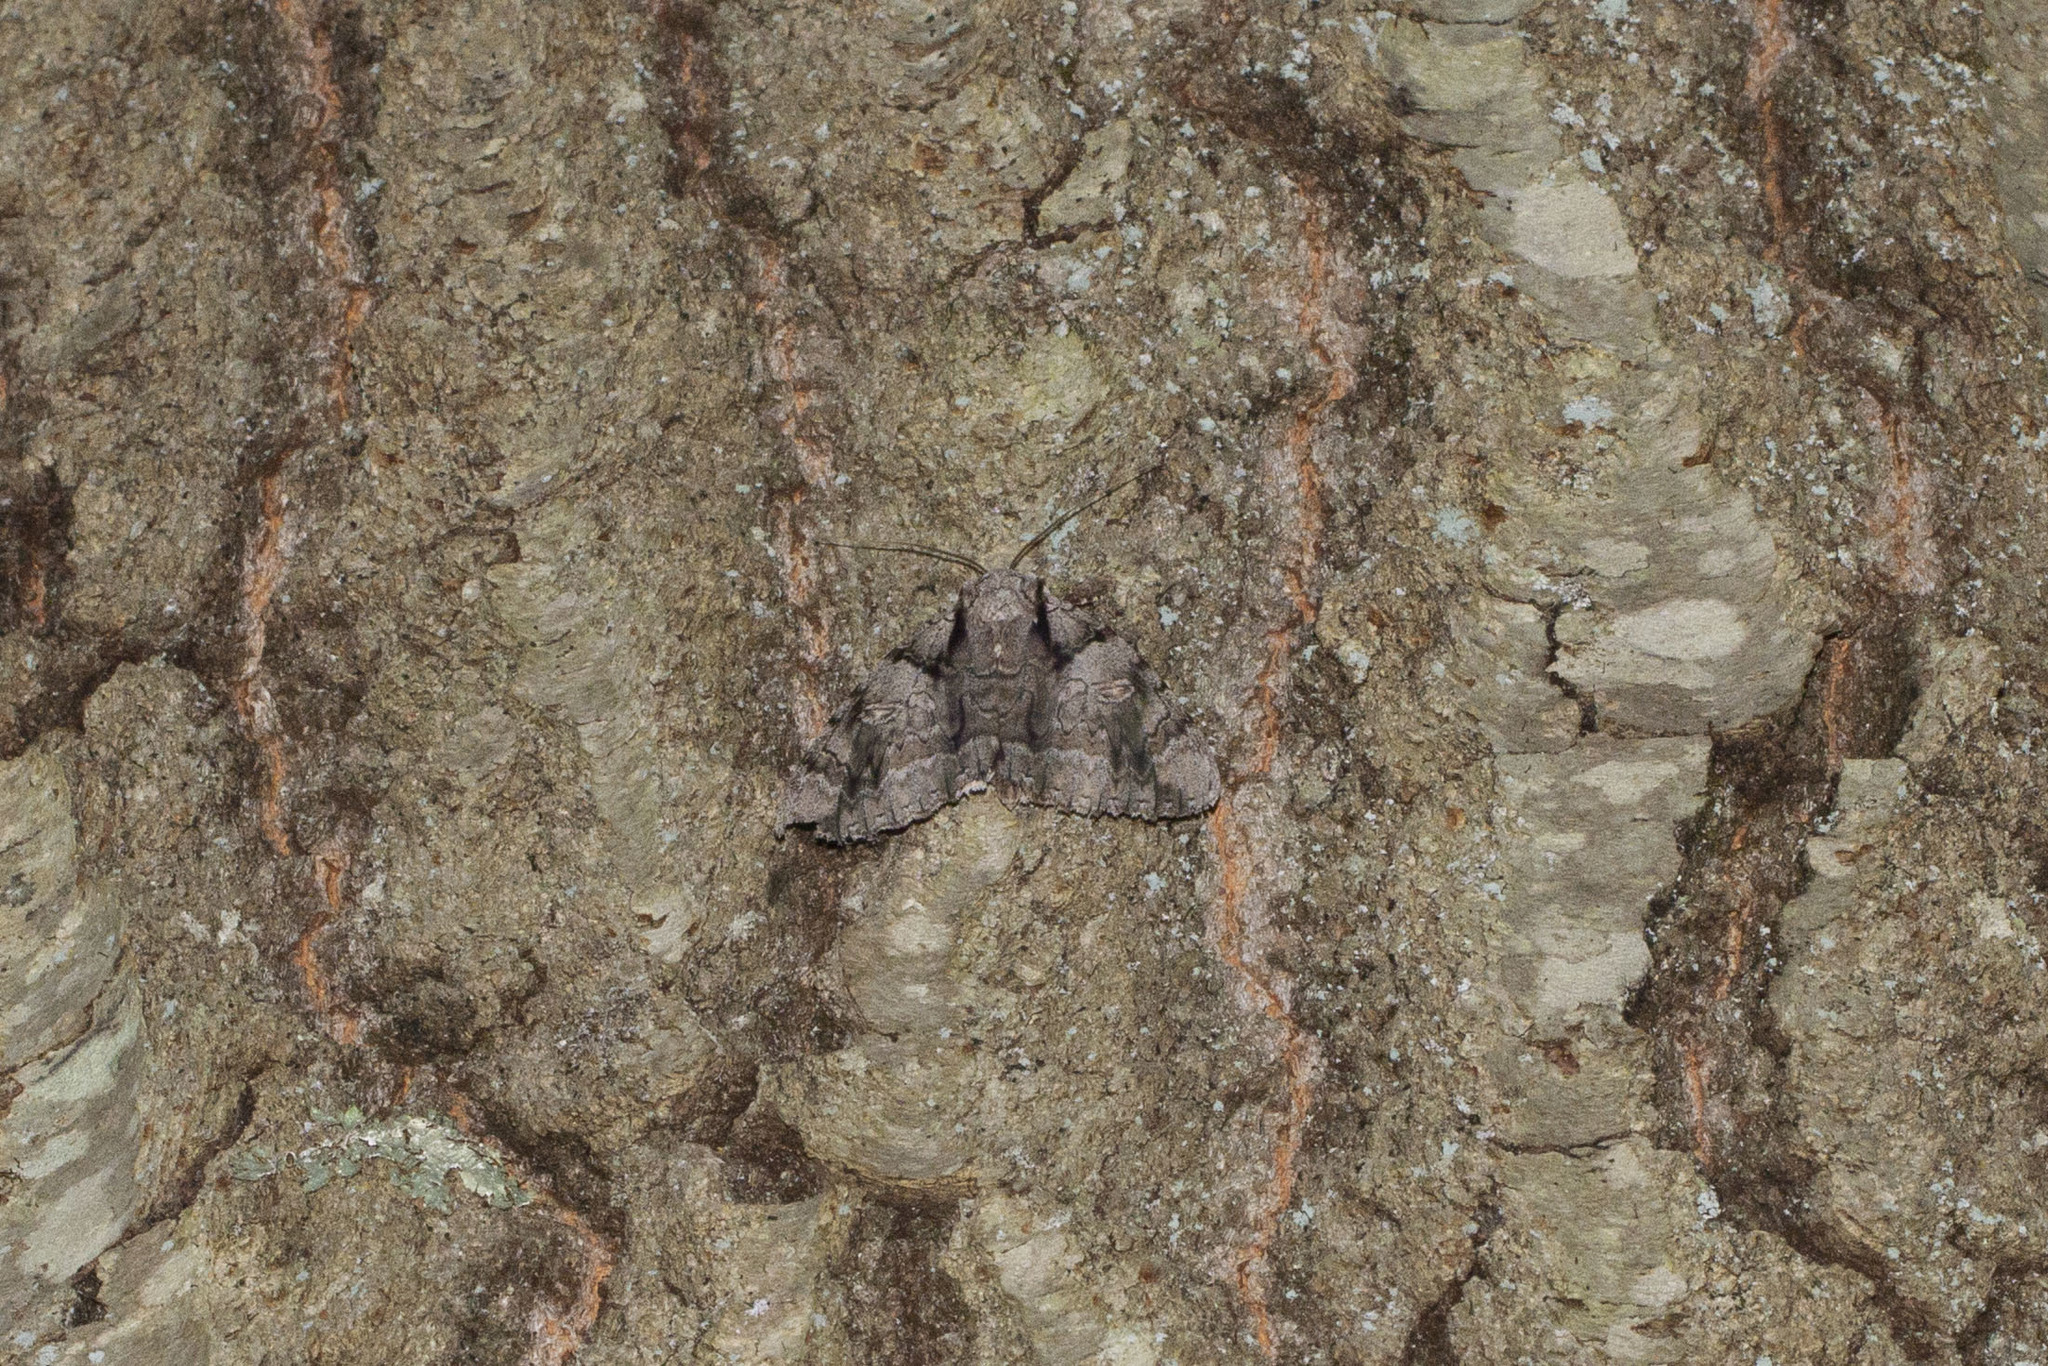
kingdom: Animalia
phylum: Arthropoda
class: Insecta
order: Lepidoptera
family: Erebidae
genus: Catocala
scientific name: Catocala vidua
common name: The widow
